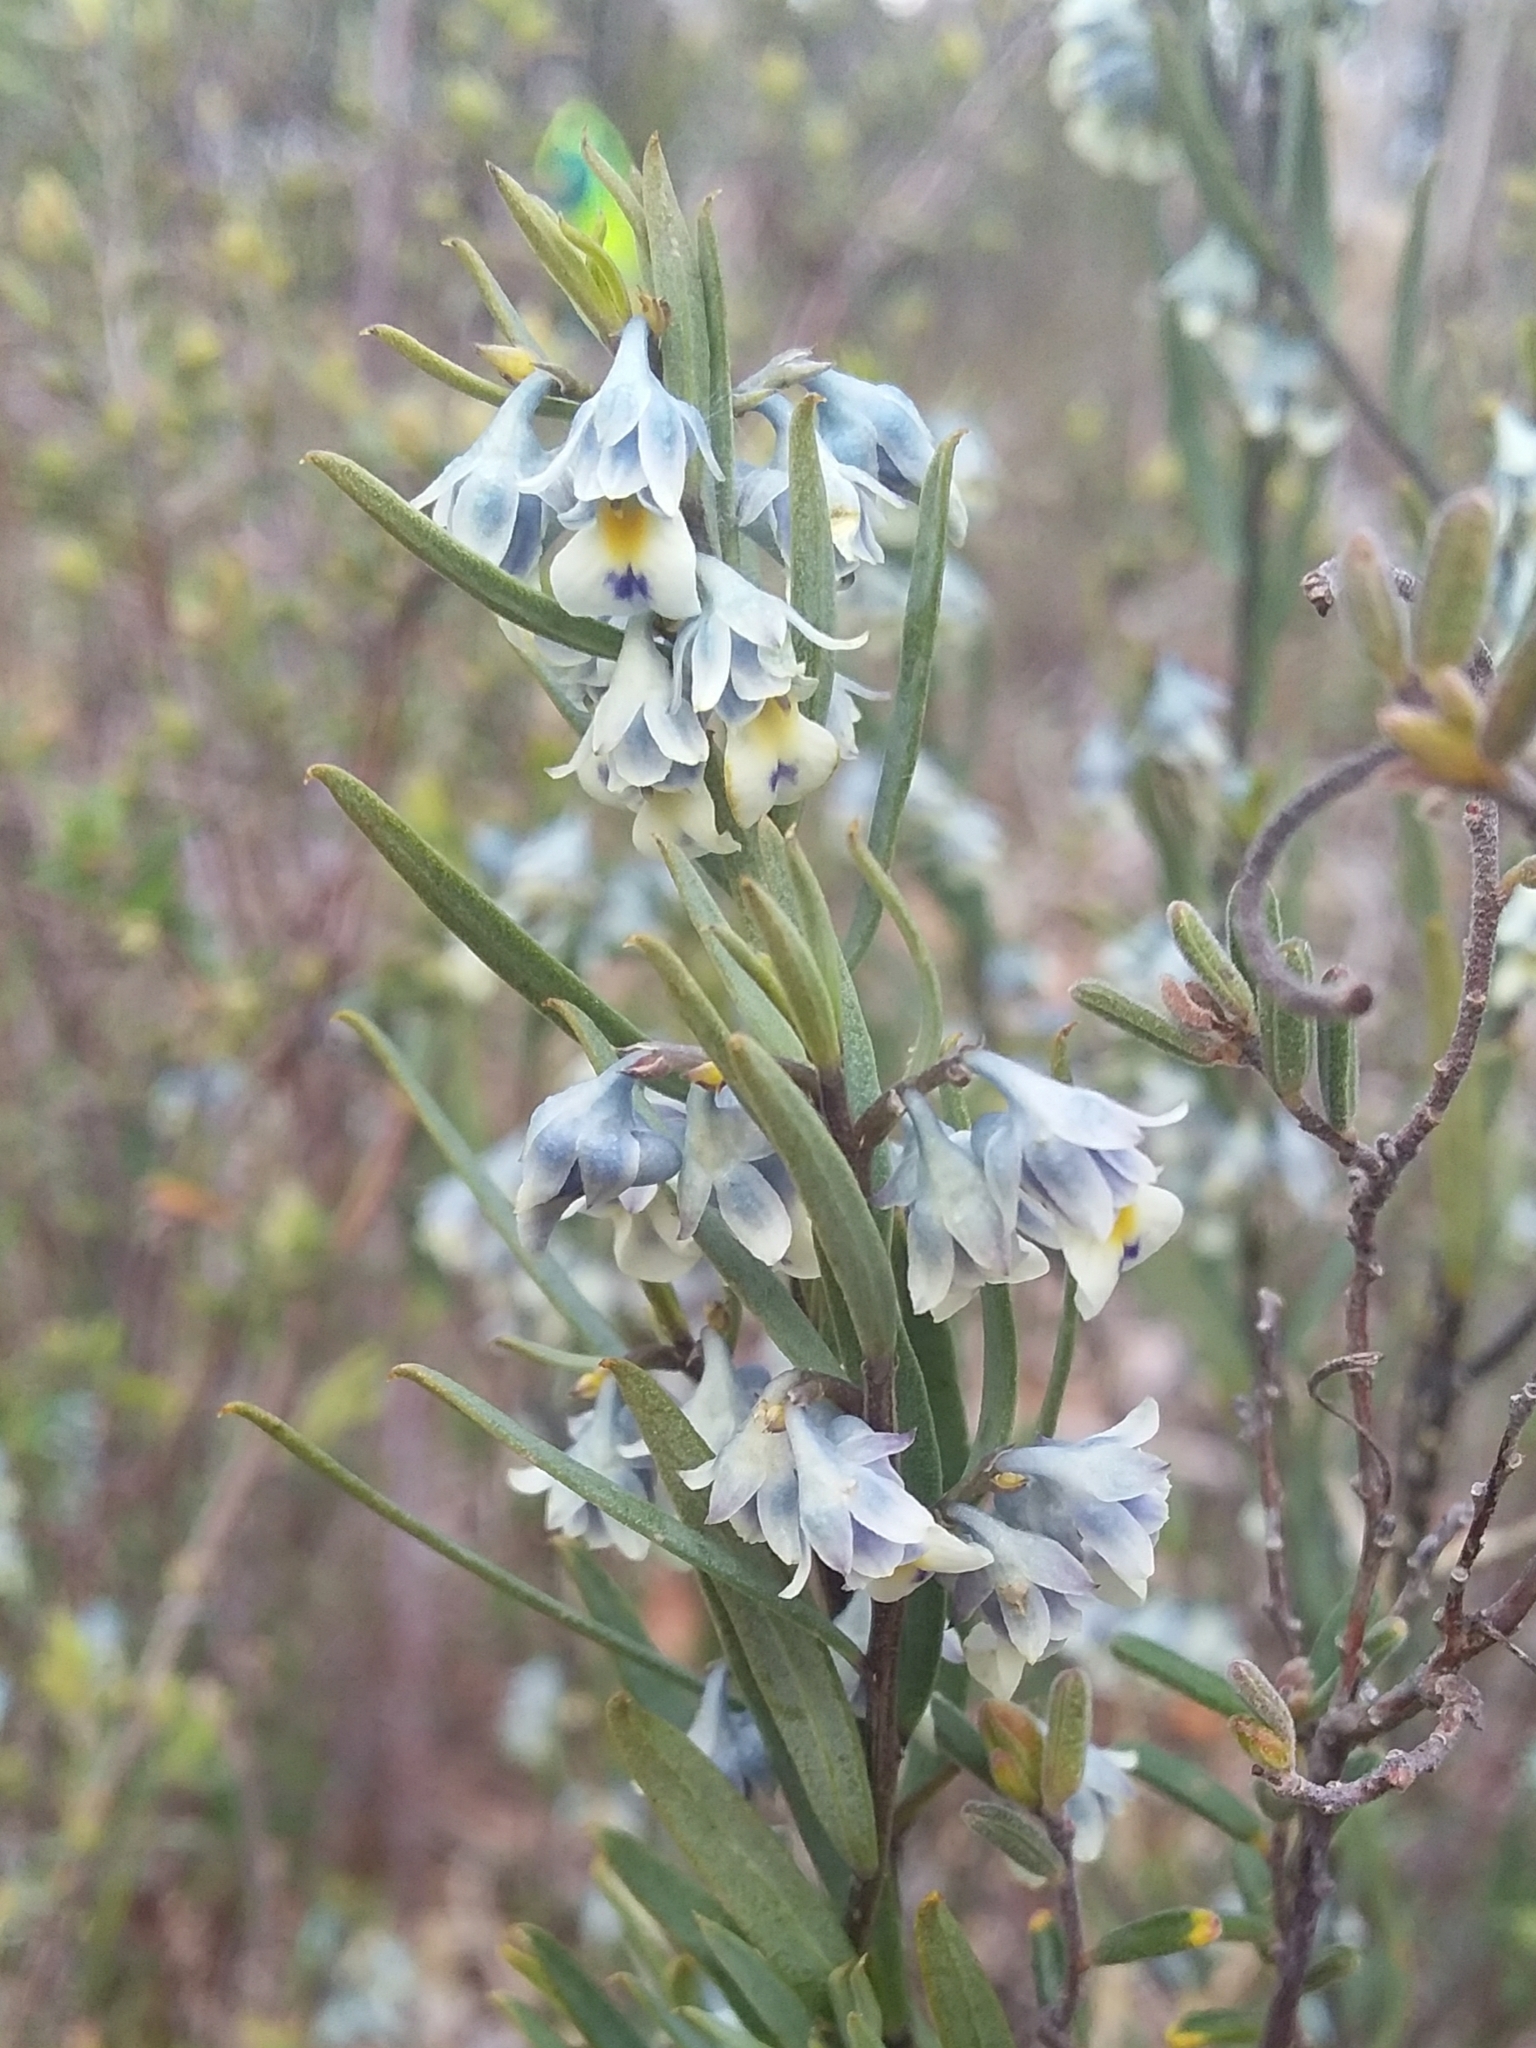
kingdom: Plantae
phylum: Tracheophyta
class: Magnoliopsida
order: Malpighiales
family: Violaceae
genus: Pigea
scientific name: Pigea floribunda
